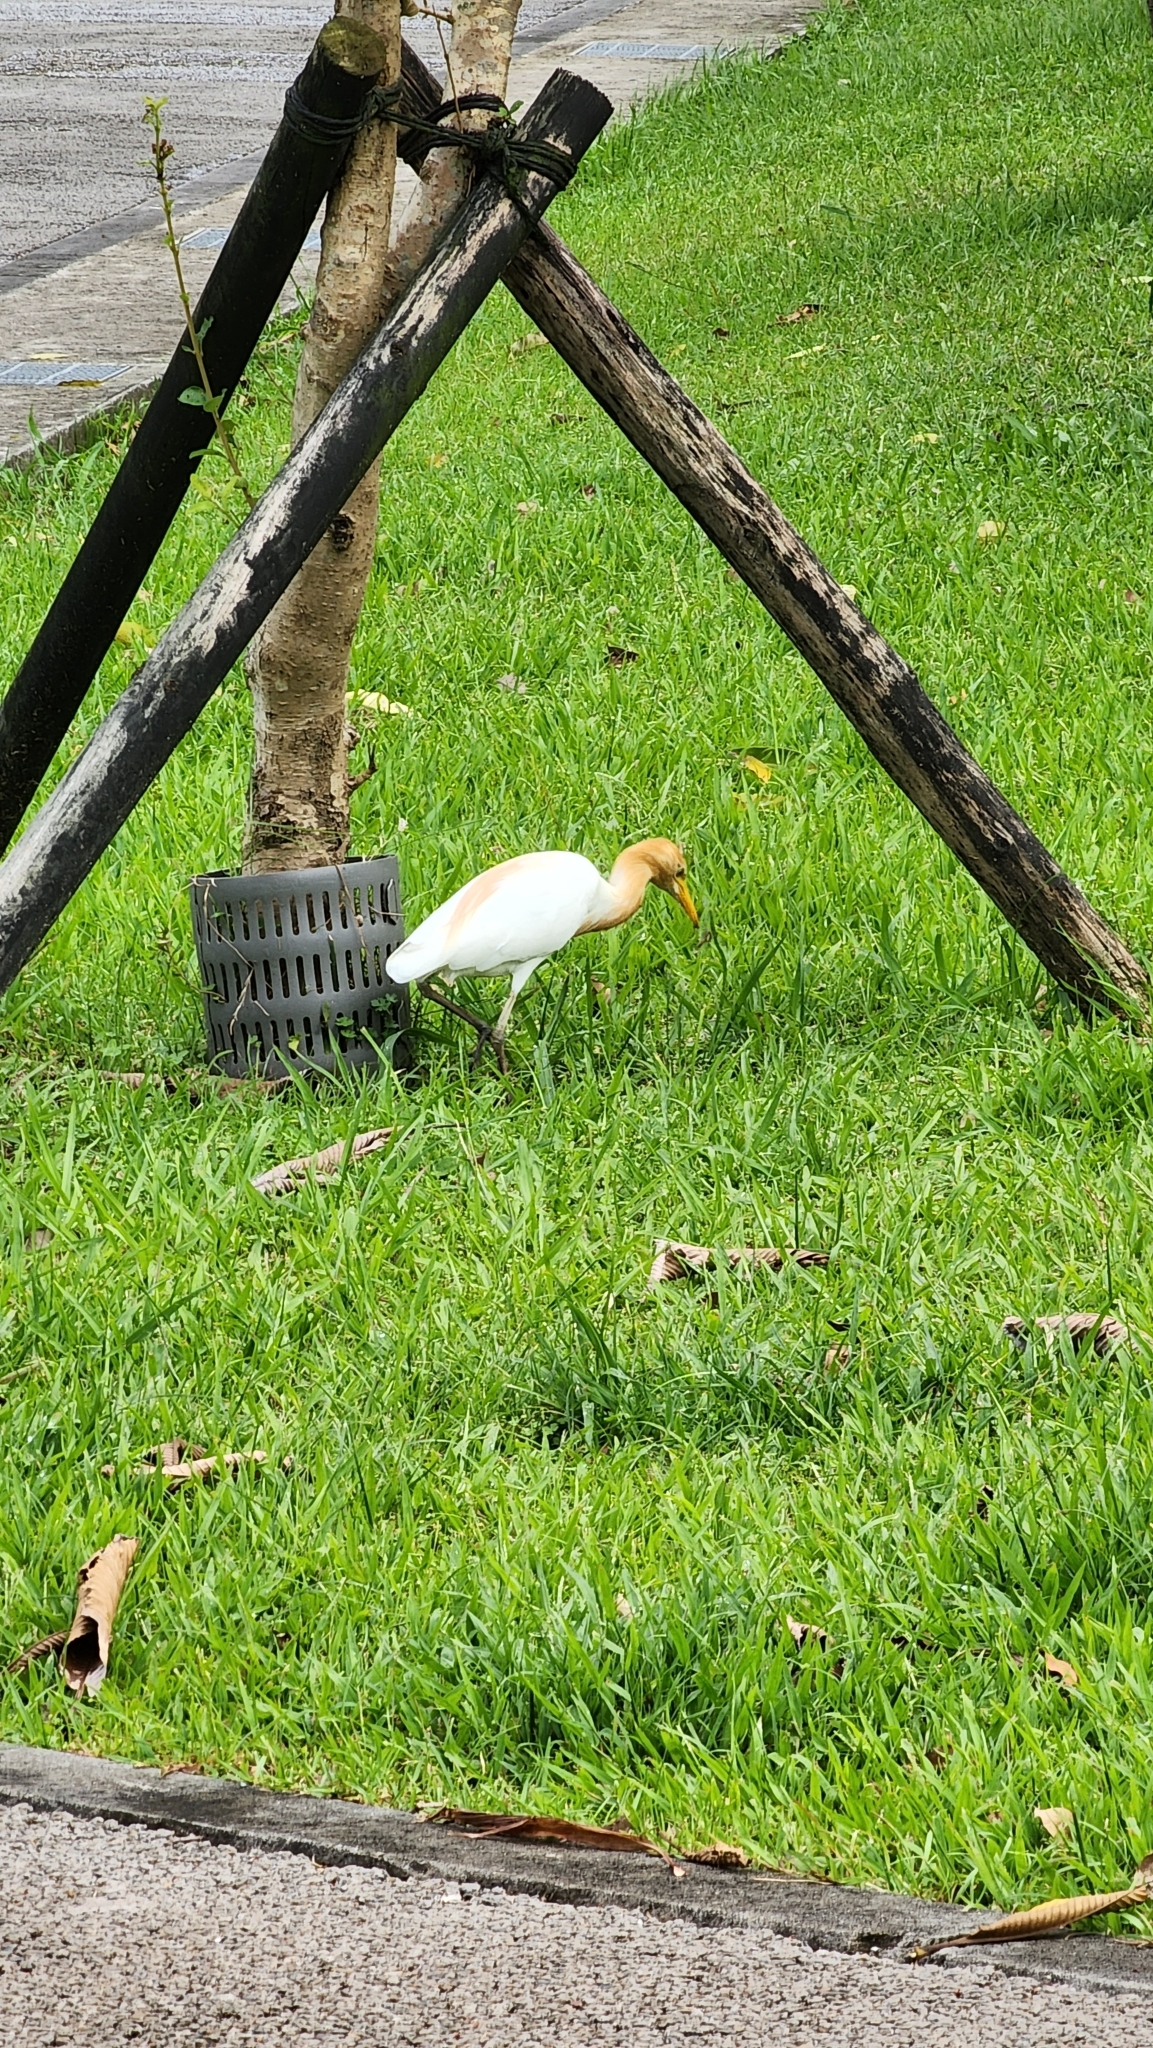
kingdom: Animalia
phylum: Chordata
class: Aves
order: Pelecaniformes
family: Ardeidae
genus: Bubulcus
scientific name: Bubulcus coromandus
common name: Eastern cattle egret
